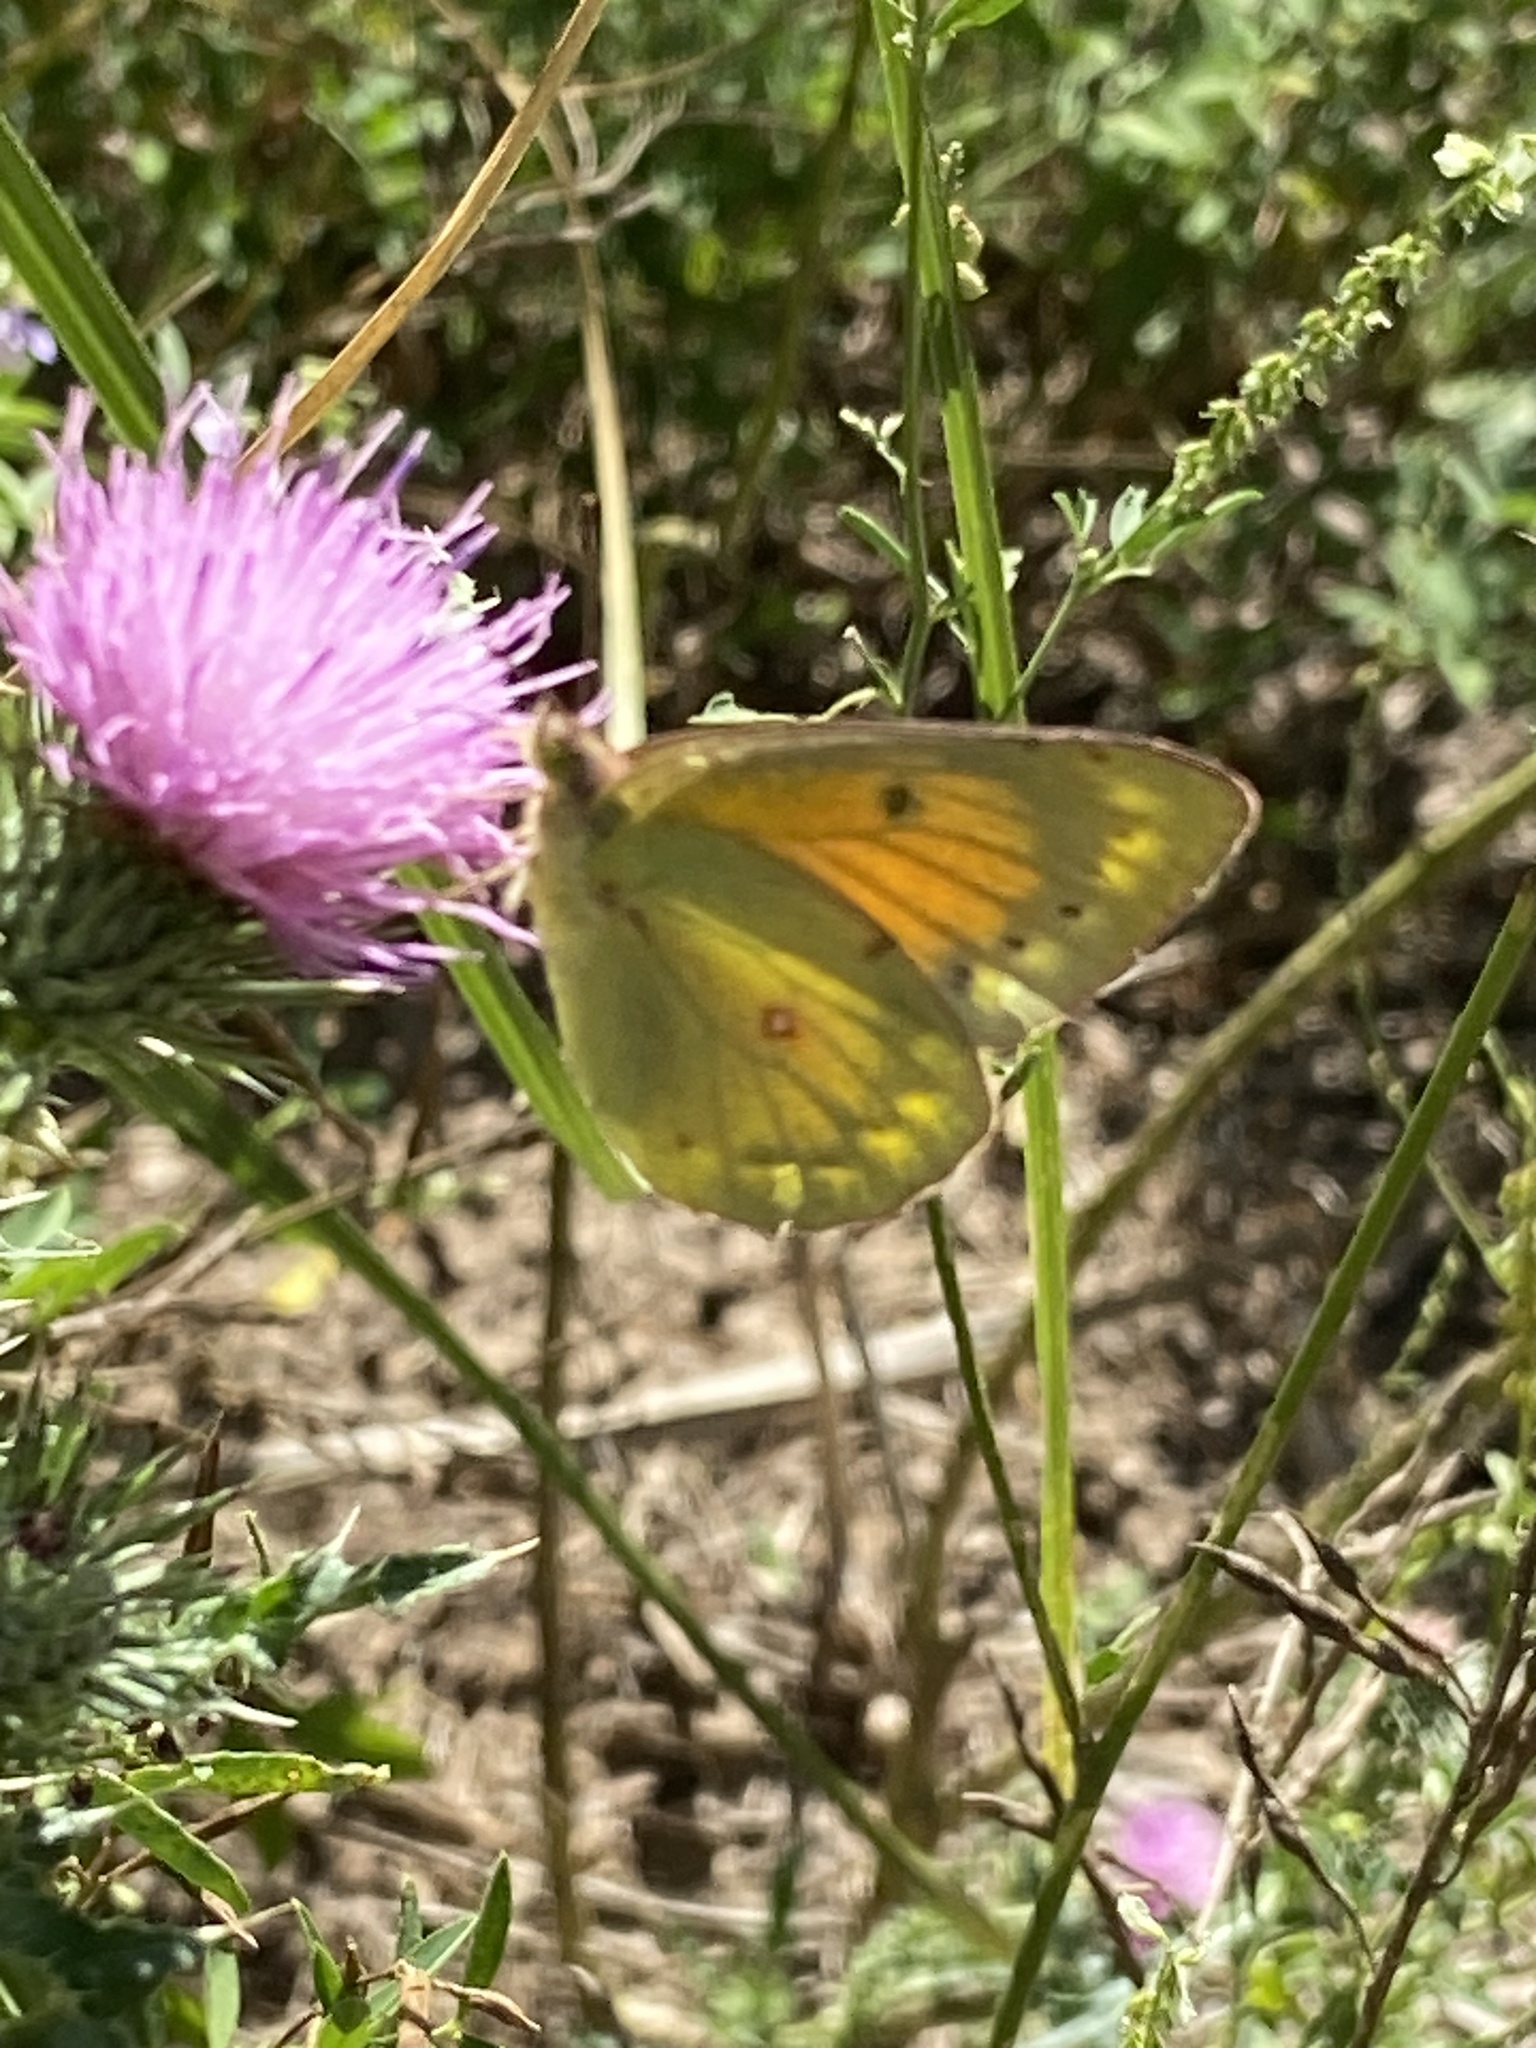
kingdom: Animalia
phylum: Arthropoda
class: Insecta
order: Lepidoptera
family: Pieridae
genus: Colias
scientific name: Colias lesbia
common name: Lesbia clouded yellow
